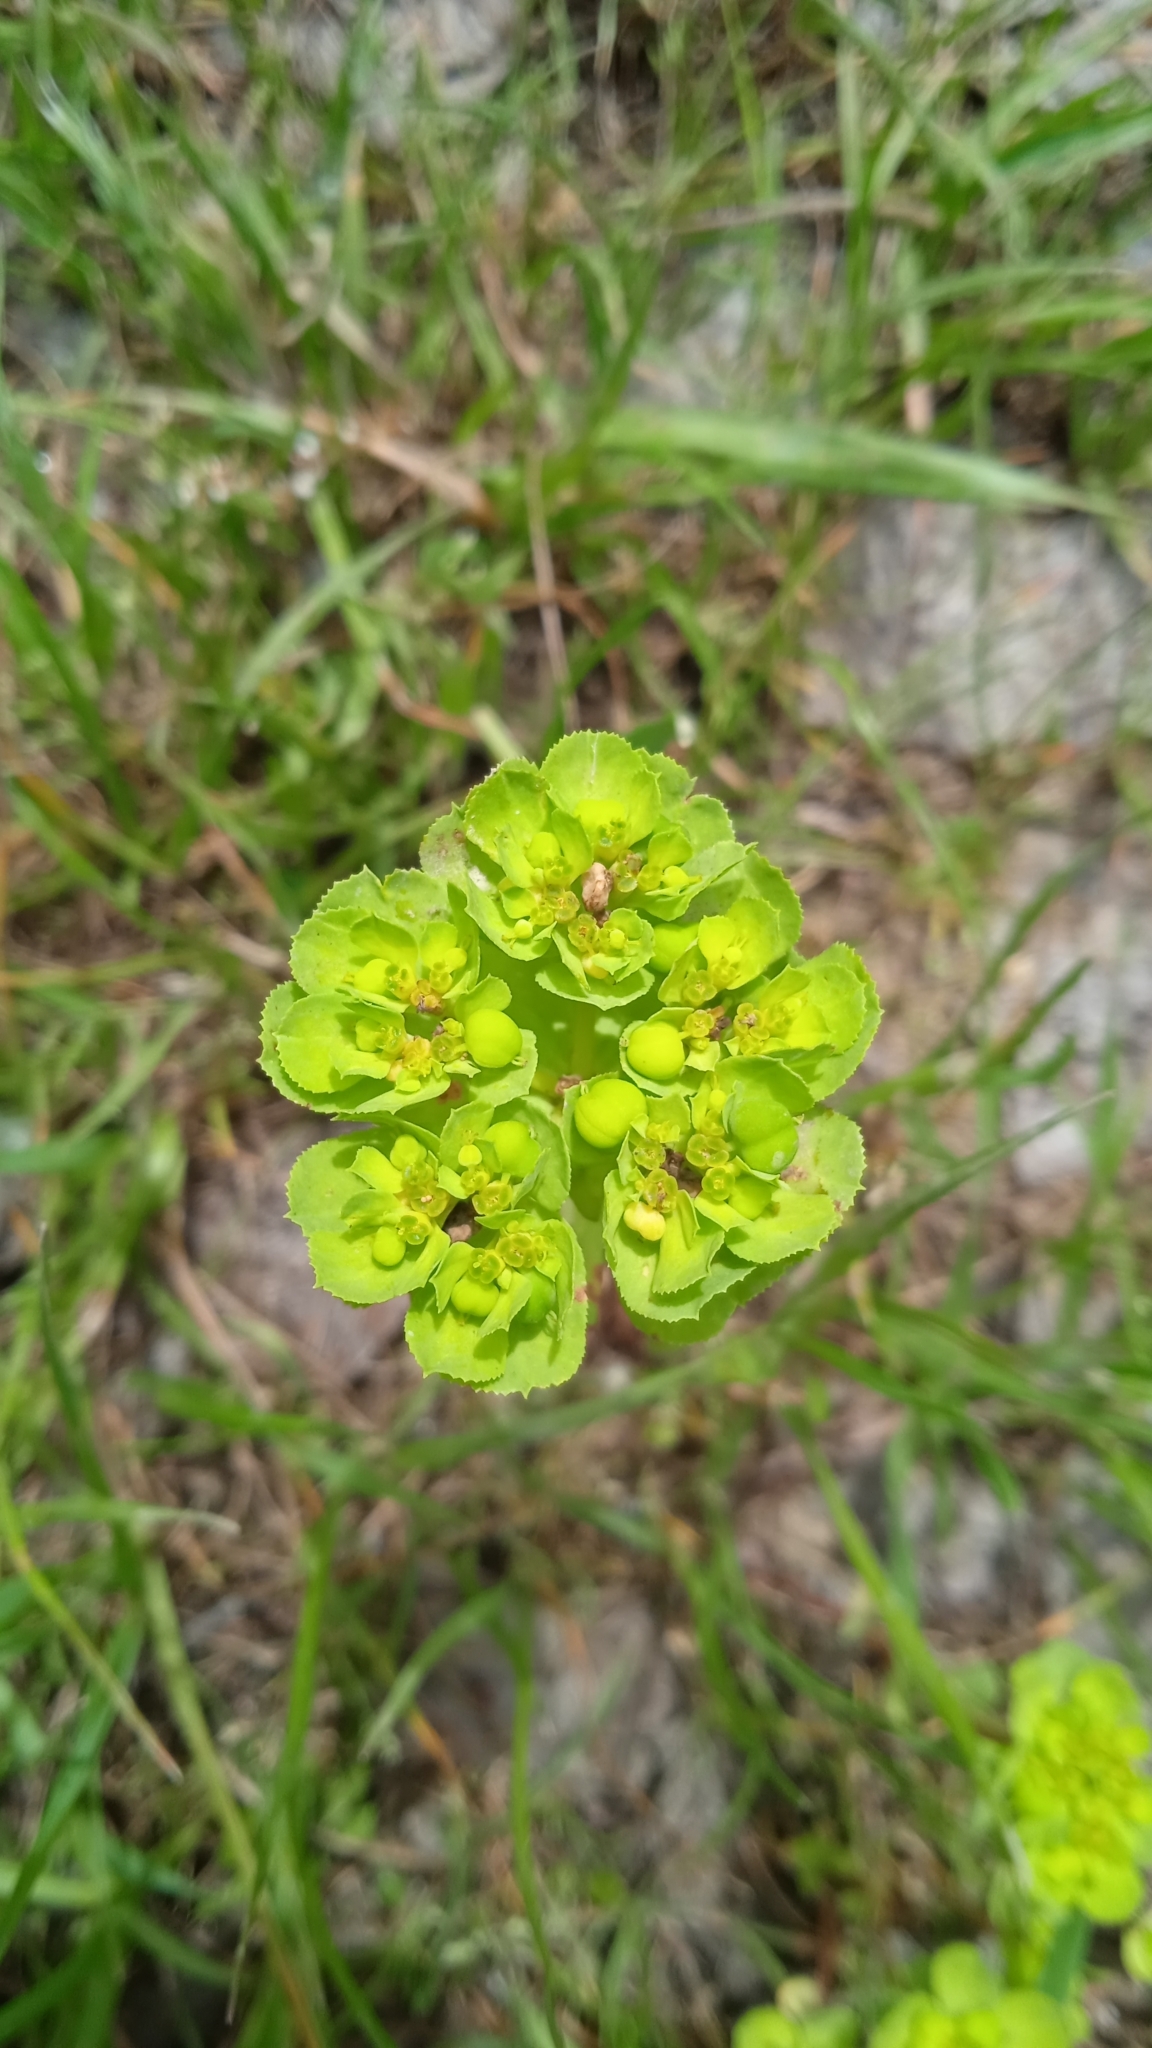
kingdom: Plantae
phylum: Tracheophyta
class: Magnoliopsida
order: Malpighiales
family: Euphorbiaceae
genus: Euphorbia
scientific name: Euphorbia helioscopia
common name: Sun spurge
